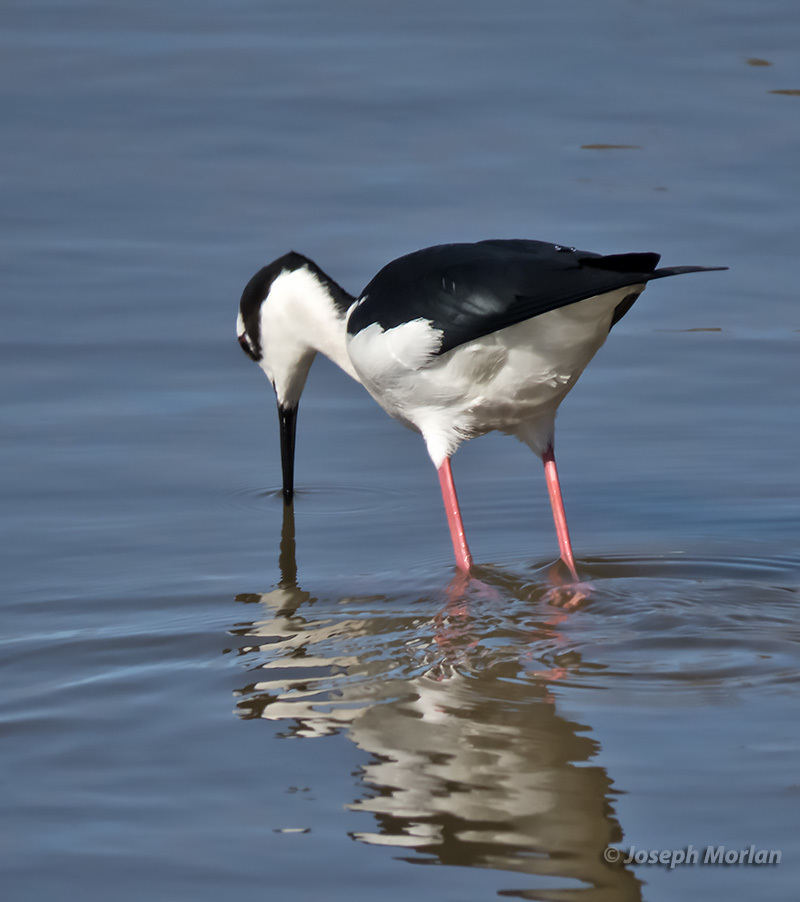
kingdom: Animalia
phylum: Chordata
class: Aves
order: Charadriiformes
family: Recurvirostridae
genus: Himantopus
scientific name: Himantopus mexicanus
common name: Black-necked stilt
